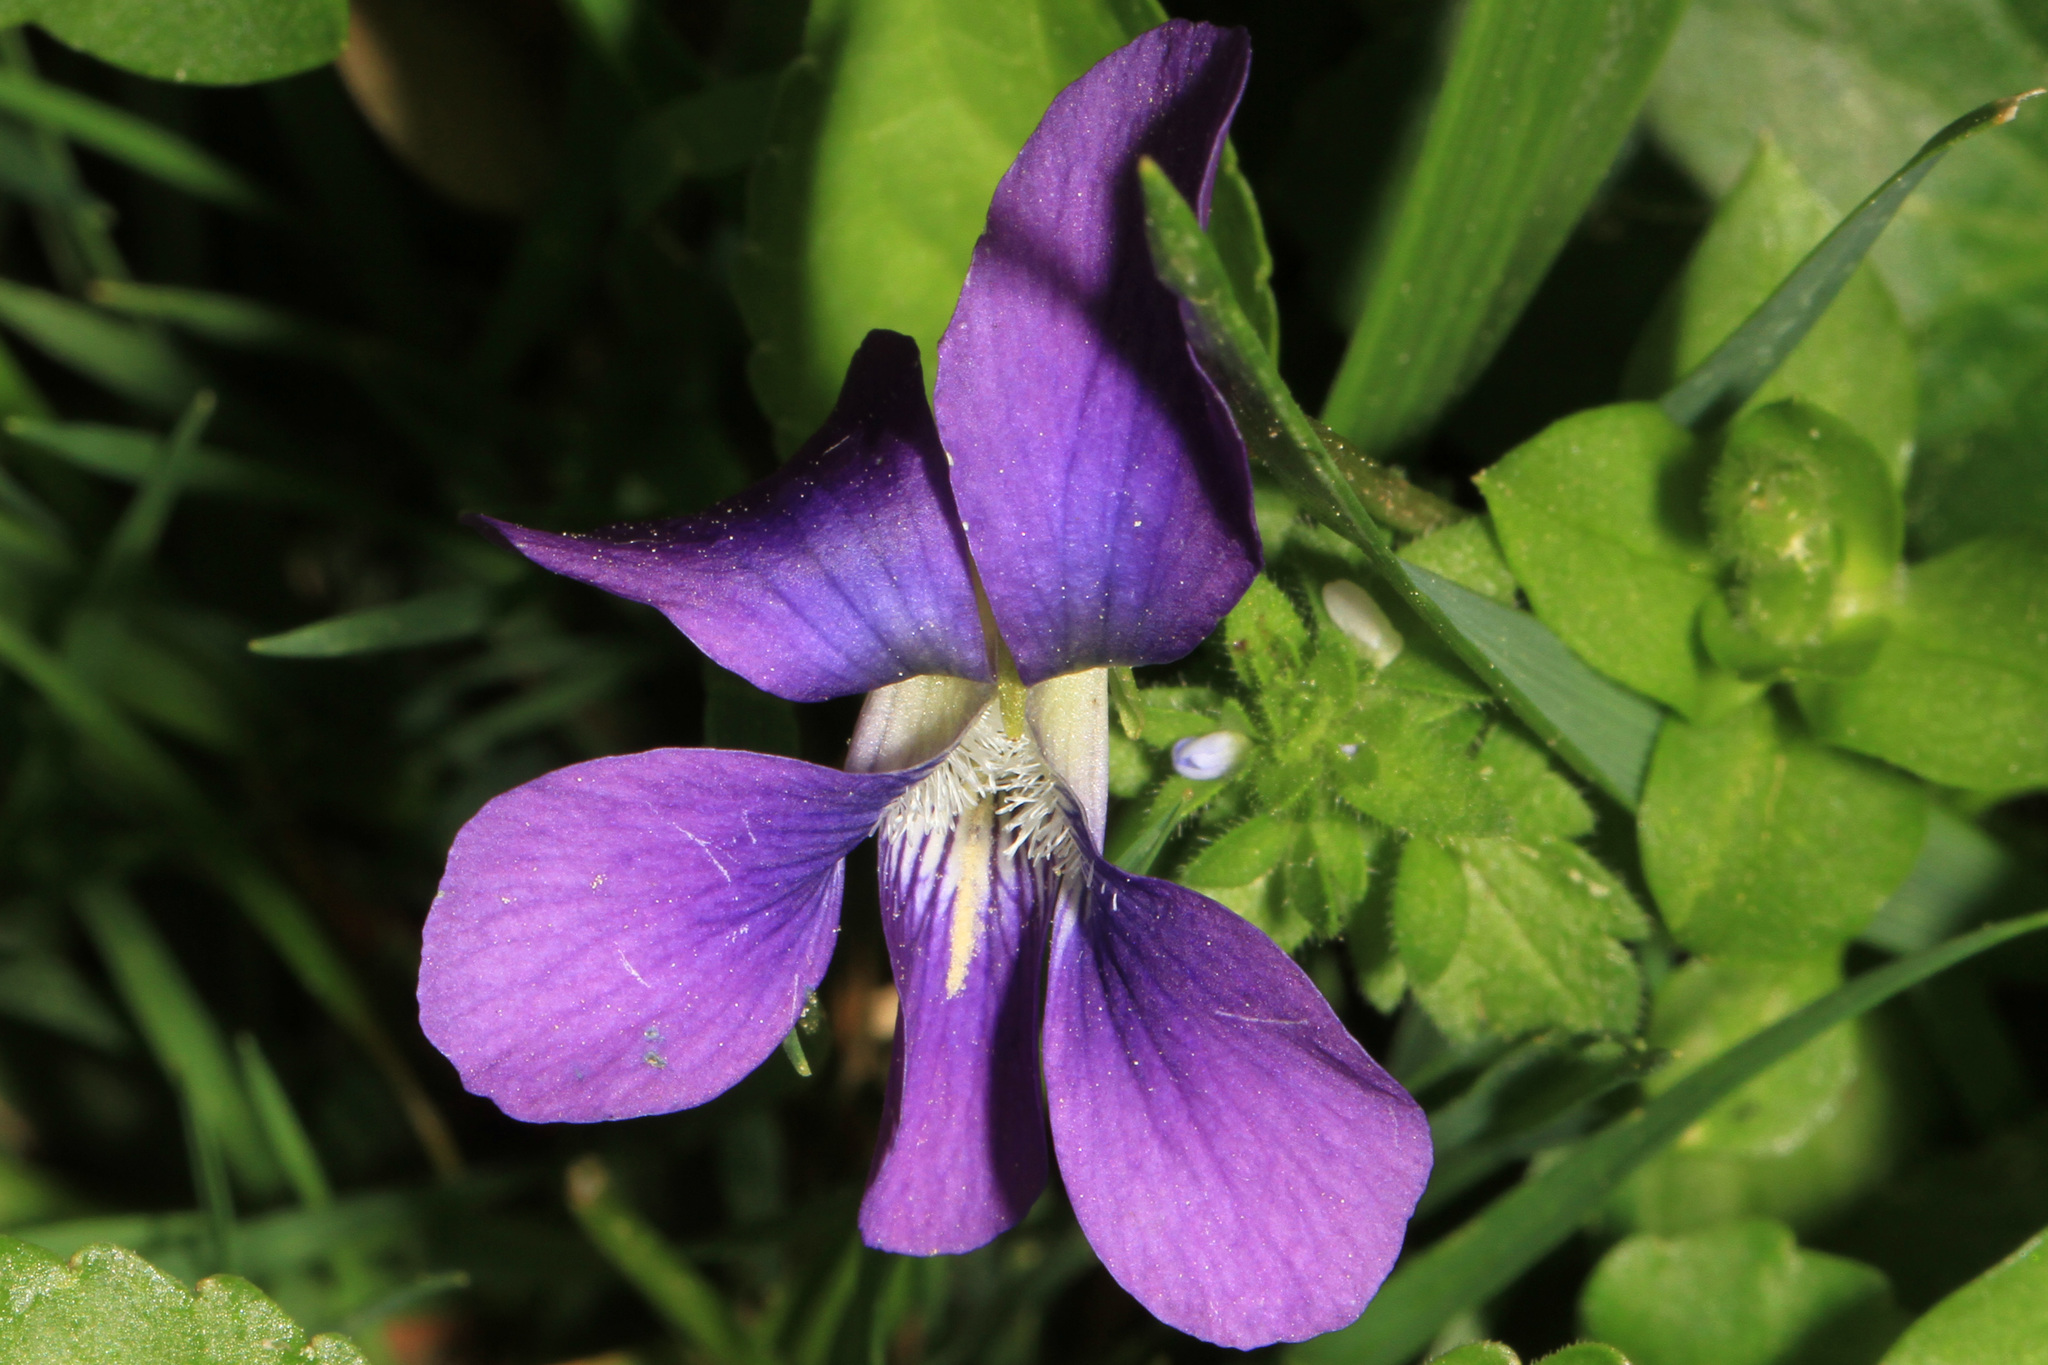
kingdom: Plantae
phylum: Tracheophyta
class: Magnoliopsida
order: Malpighiales
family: Violaceae
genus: Viola
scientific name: Viola sororia
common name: Dooryard violet
